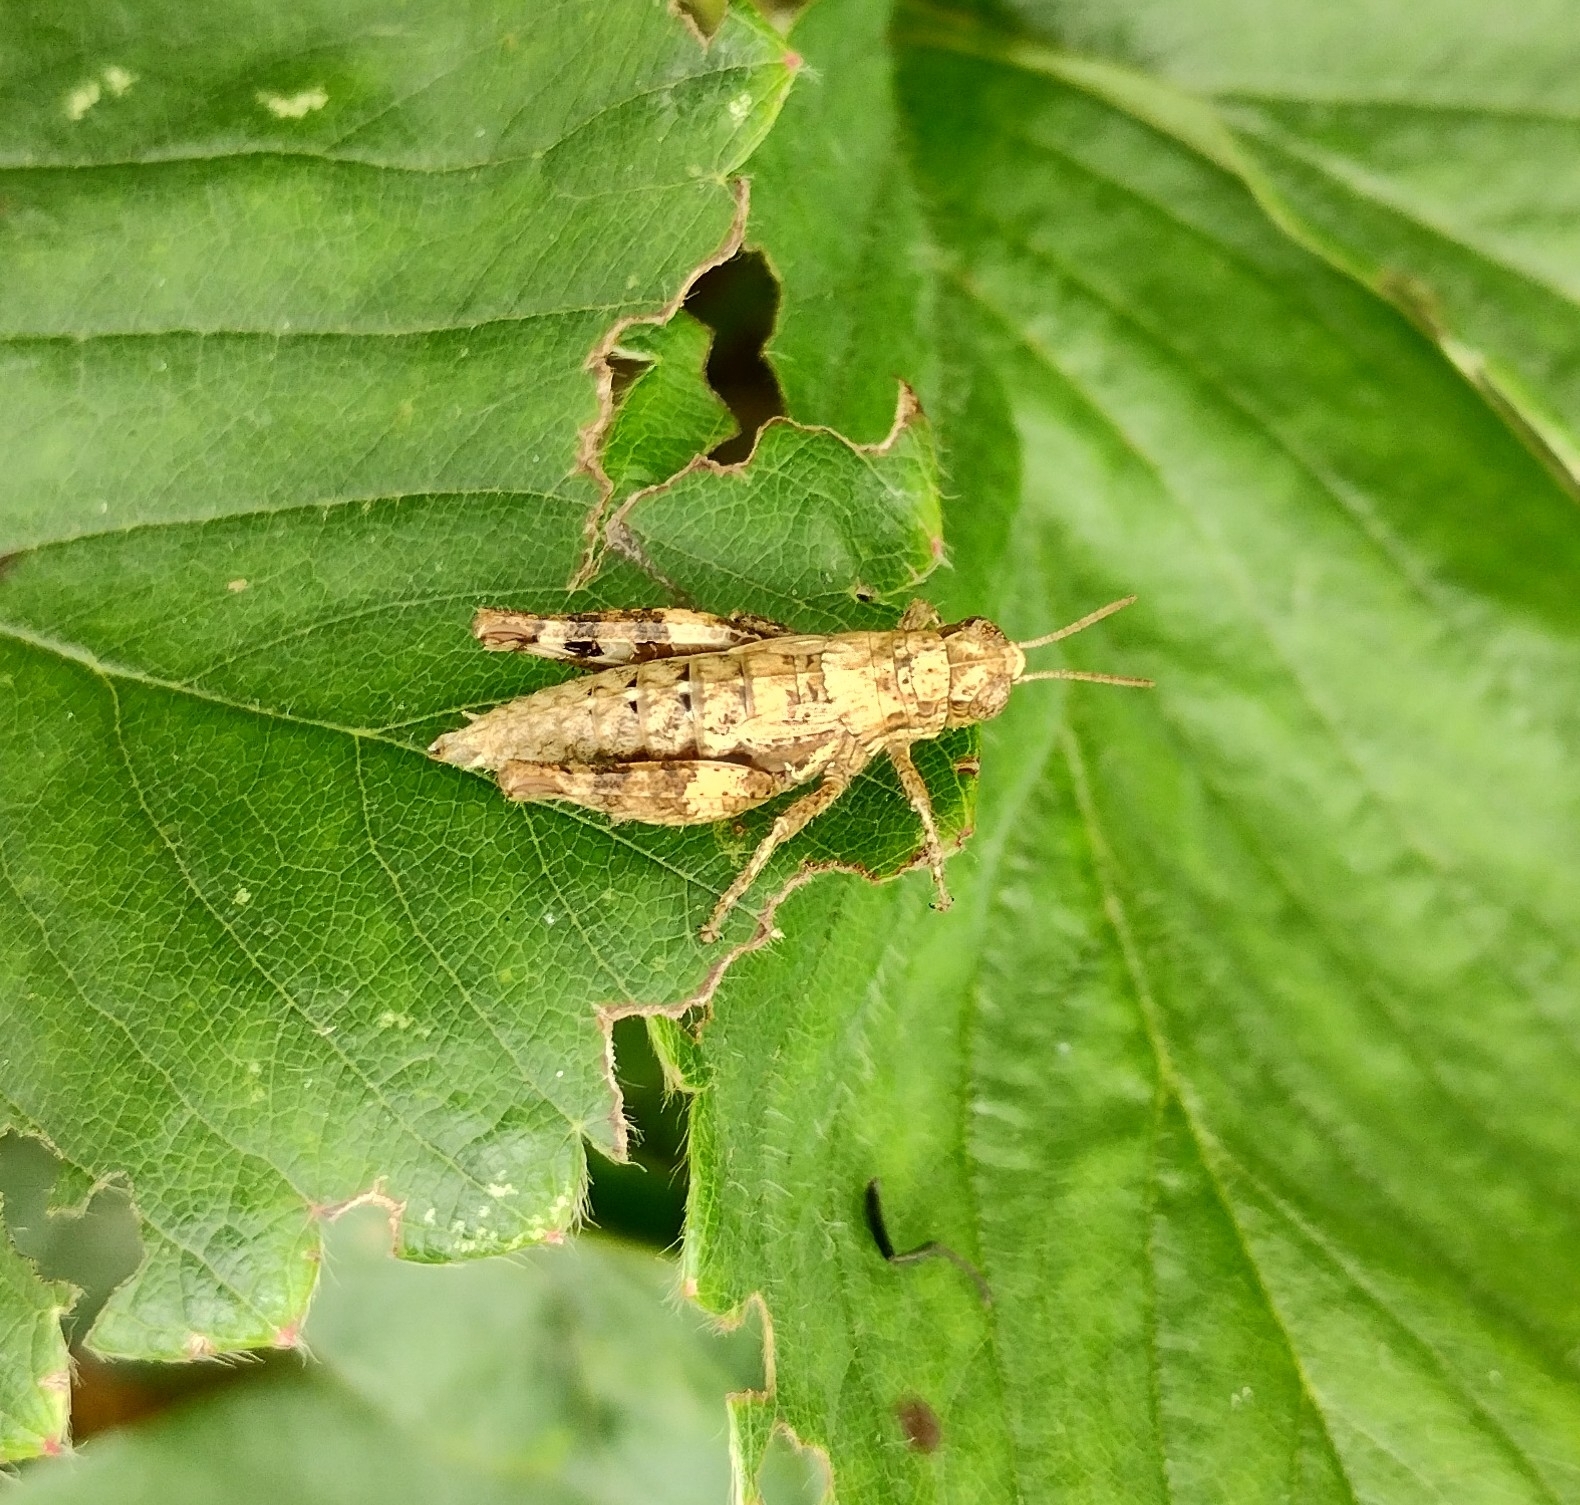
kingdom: Animalia
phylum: Arthropoda
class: Insecta
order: Orthoptera
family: Acrididae
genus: Pezotettix
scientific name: Pezotettix giornae
